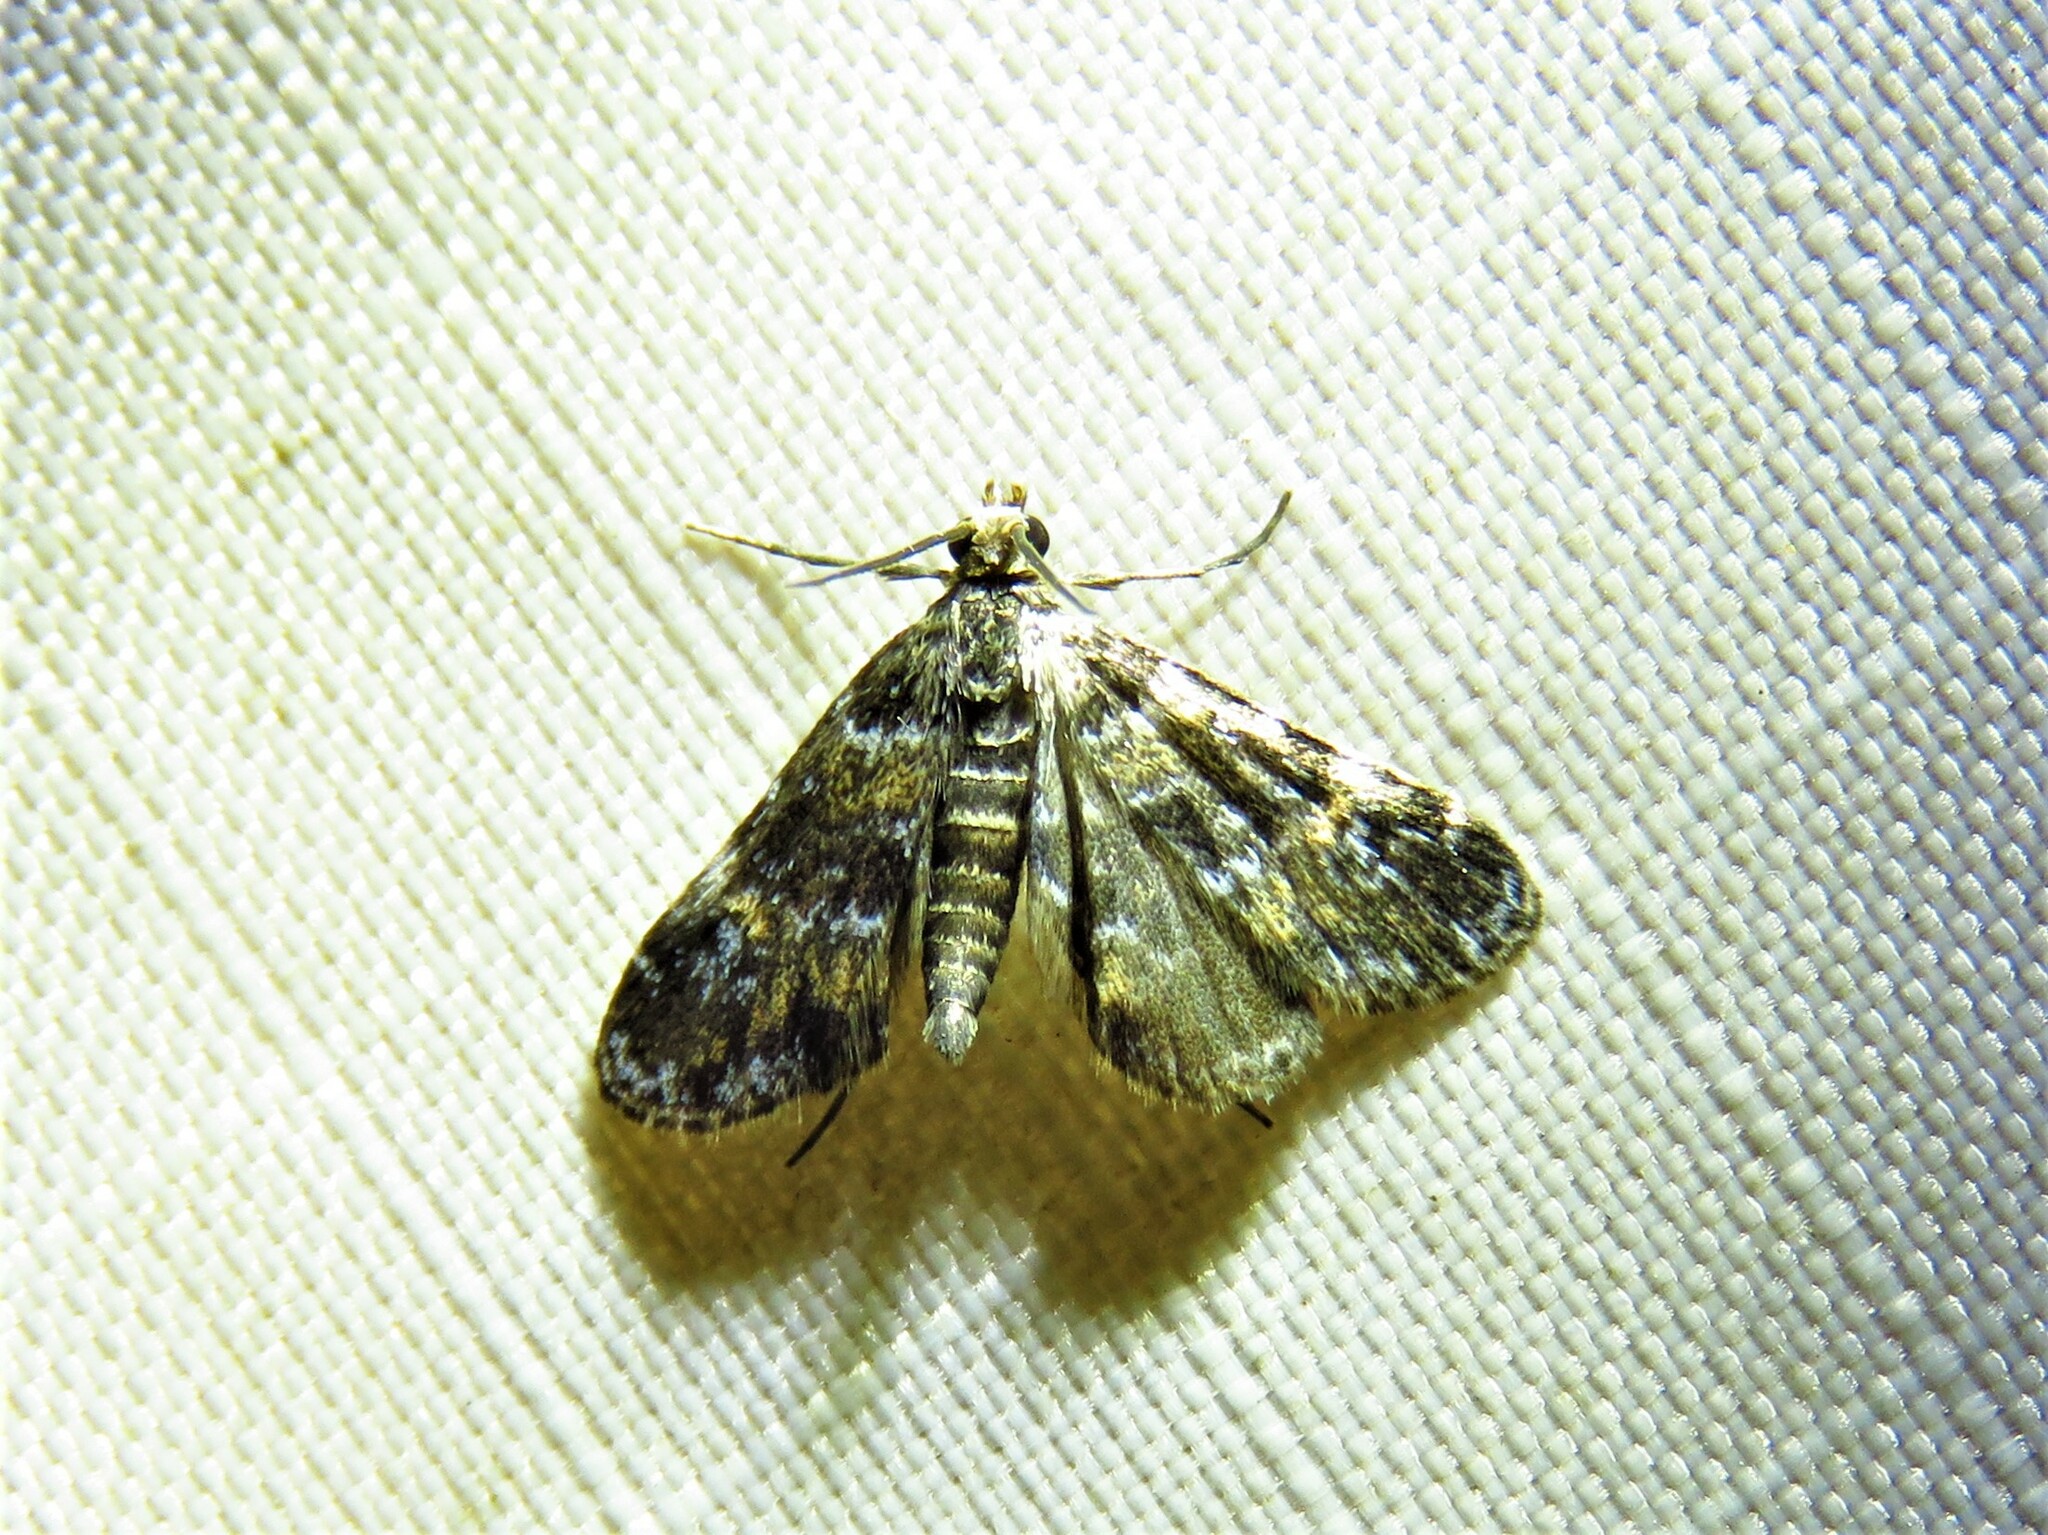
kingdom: Animalia
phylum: Arthropoda
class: Insecta
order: Lepidoptera
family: Crambidae
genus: Elophila
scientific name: Elophila obliteralis
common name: Waterlily leafcutter moth
